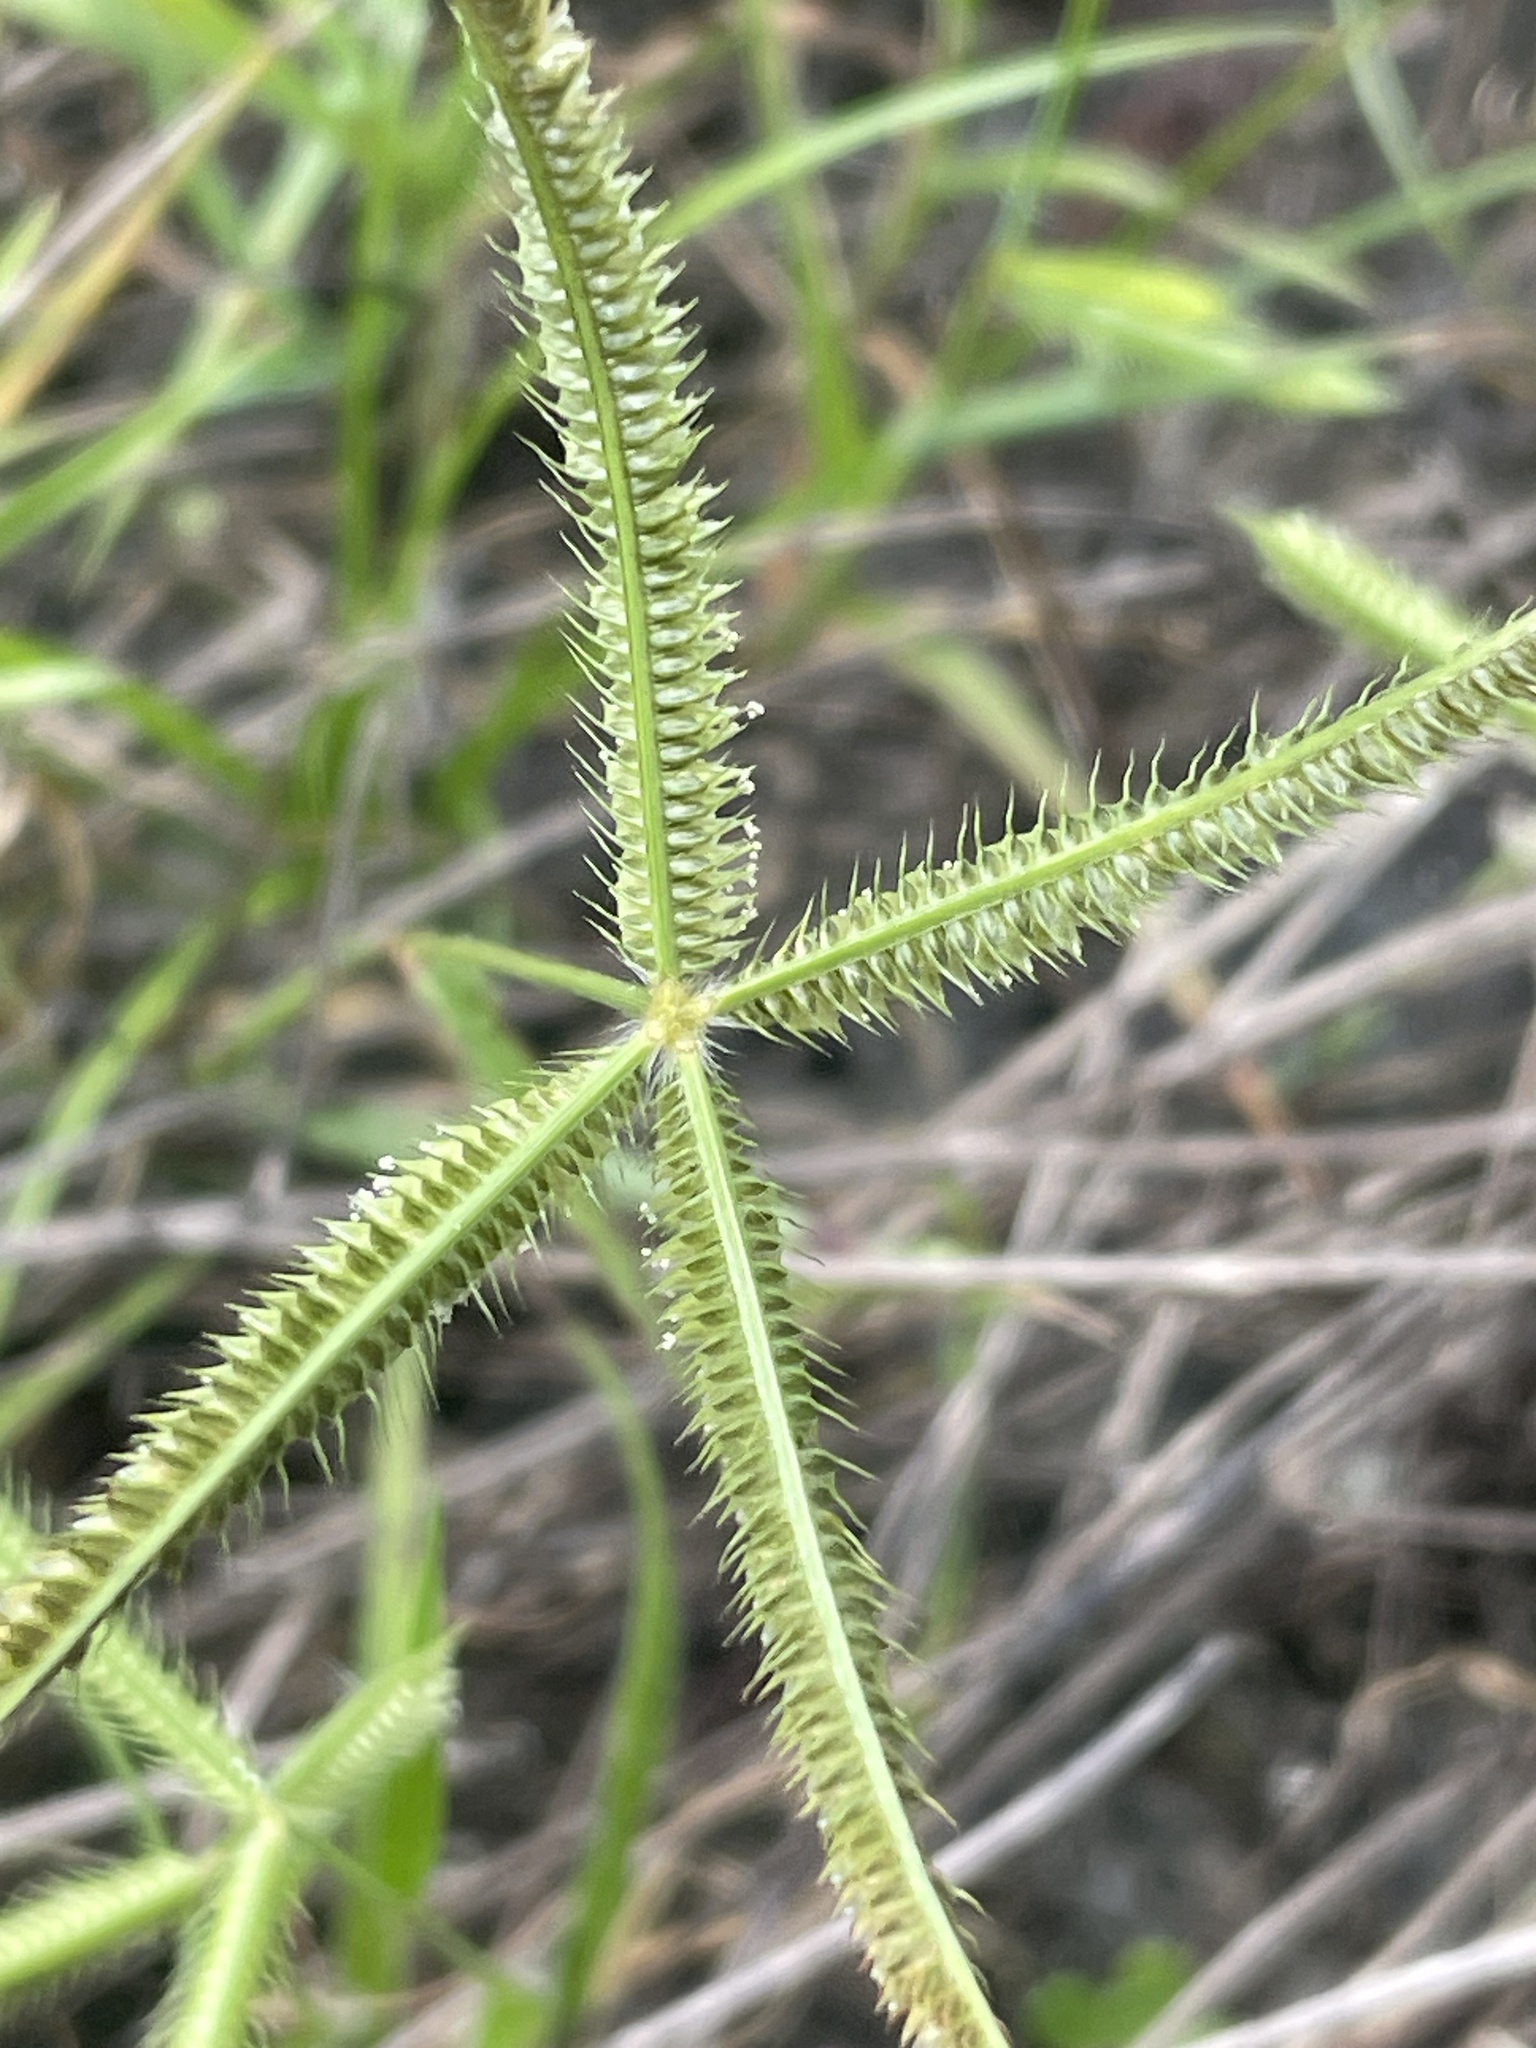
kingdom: Plantae
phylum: Tracheophyta
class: Liliopsida
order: Poales
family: Poaceae
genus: Dactyloctenium
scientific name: Dactyloctenium aegyptium
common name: Egyptian grass
